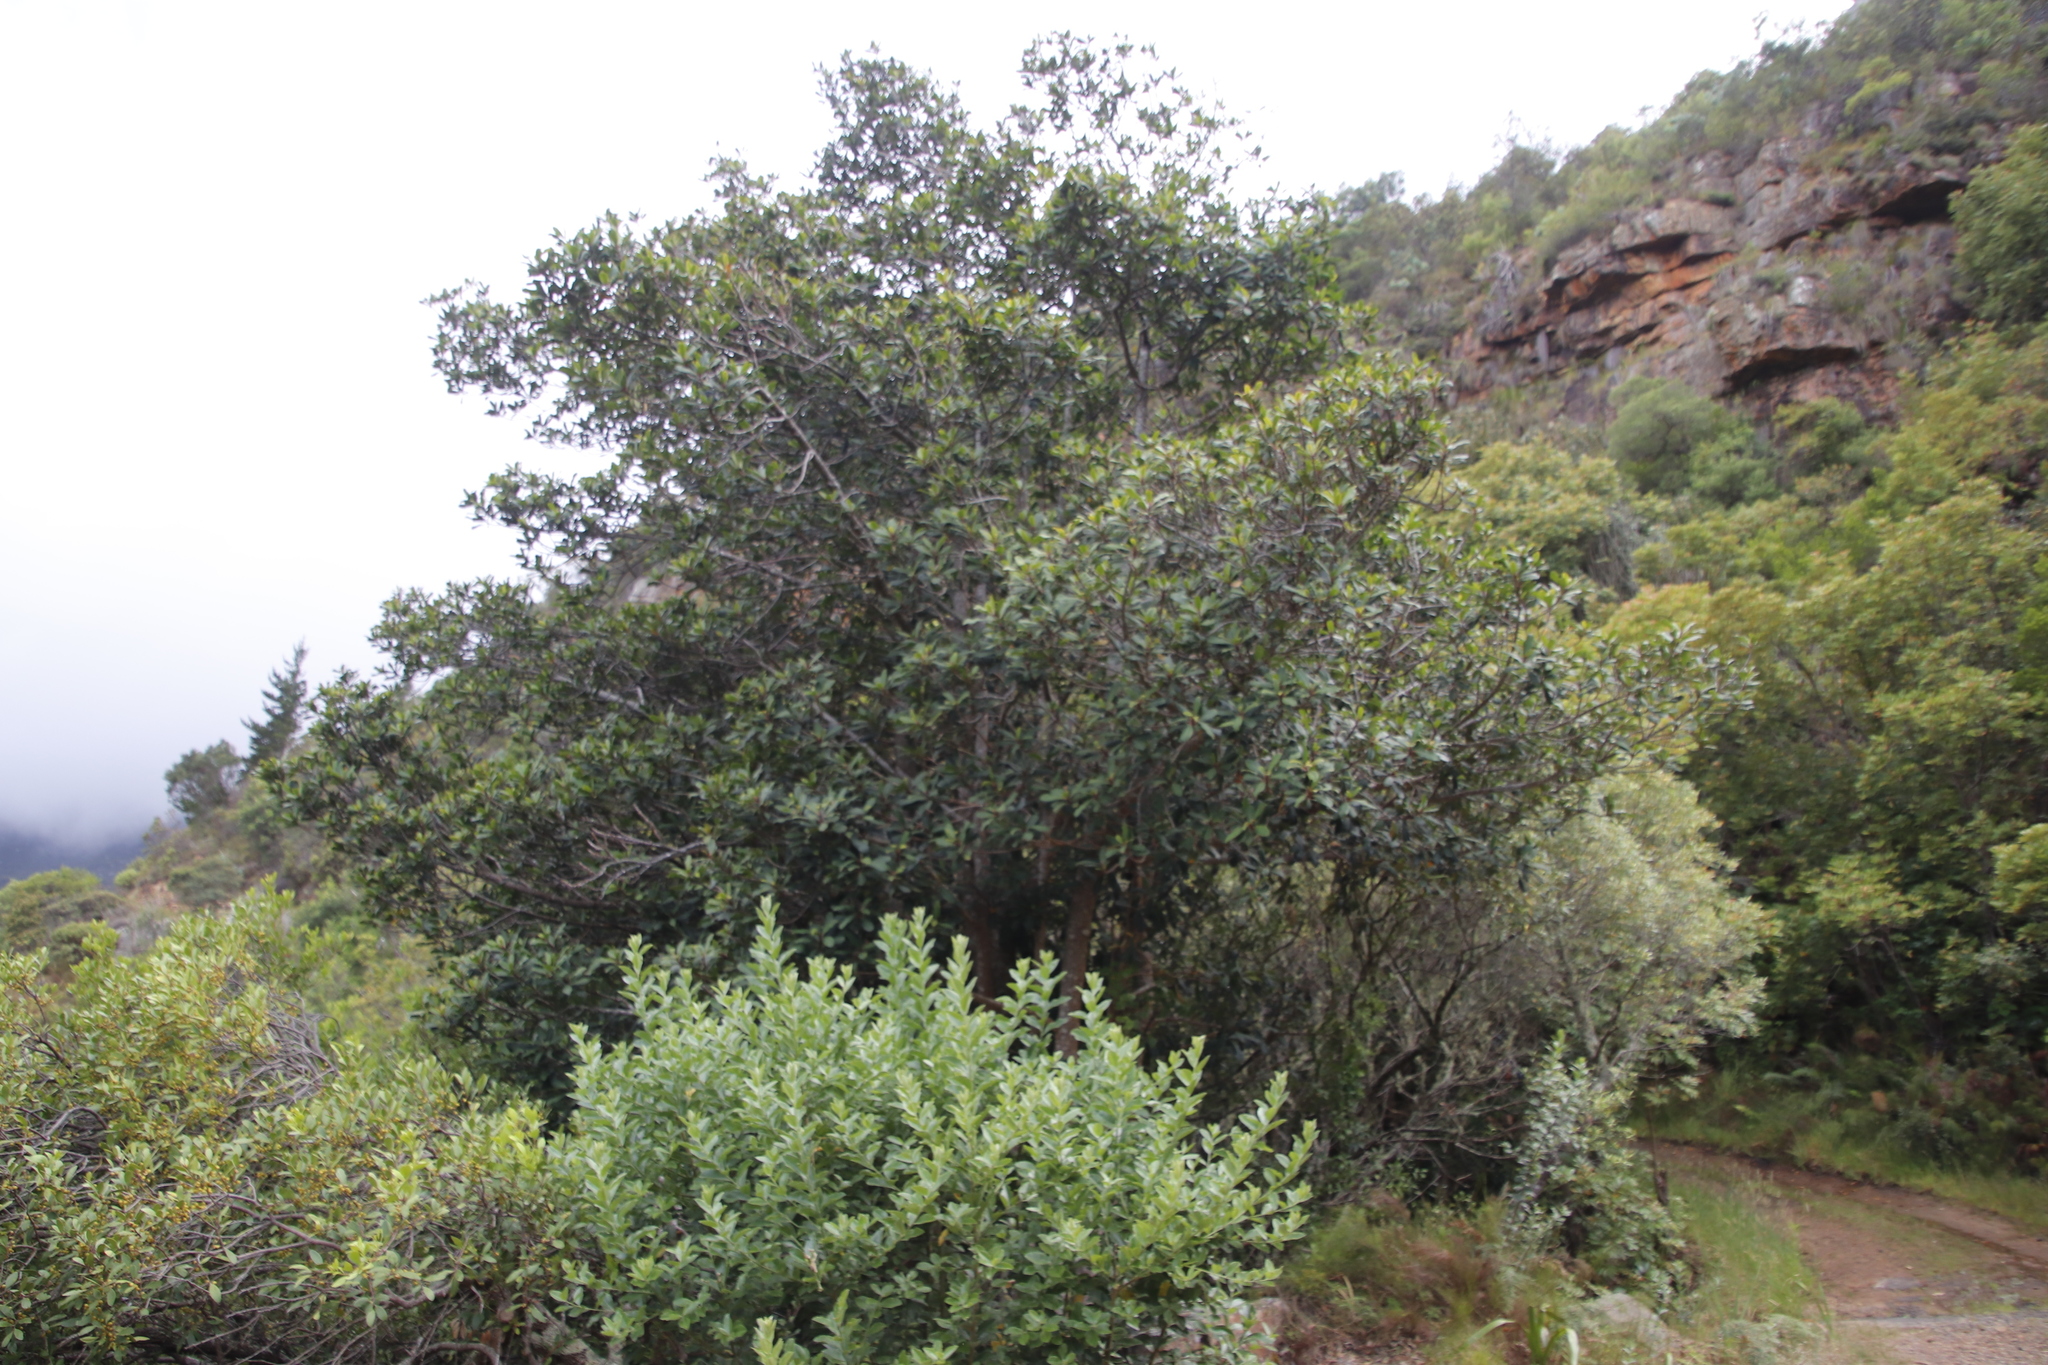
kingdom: Plantae
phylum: Tracheophyta
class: Magnoliopsida
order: Ericales
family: Primulaceae
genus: Myrsine
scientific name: Myrsine melanophloeos
